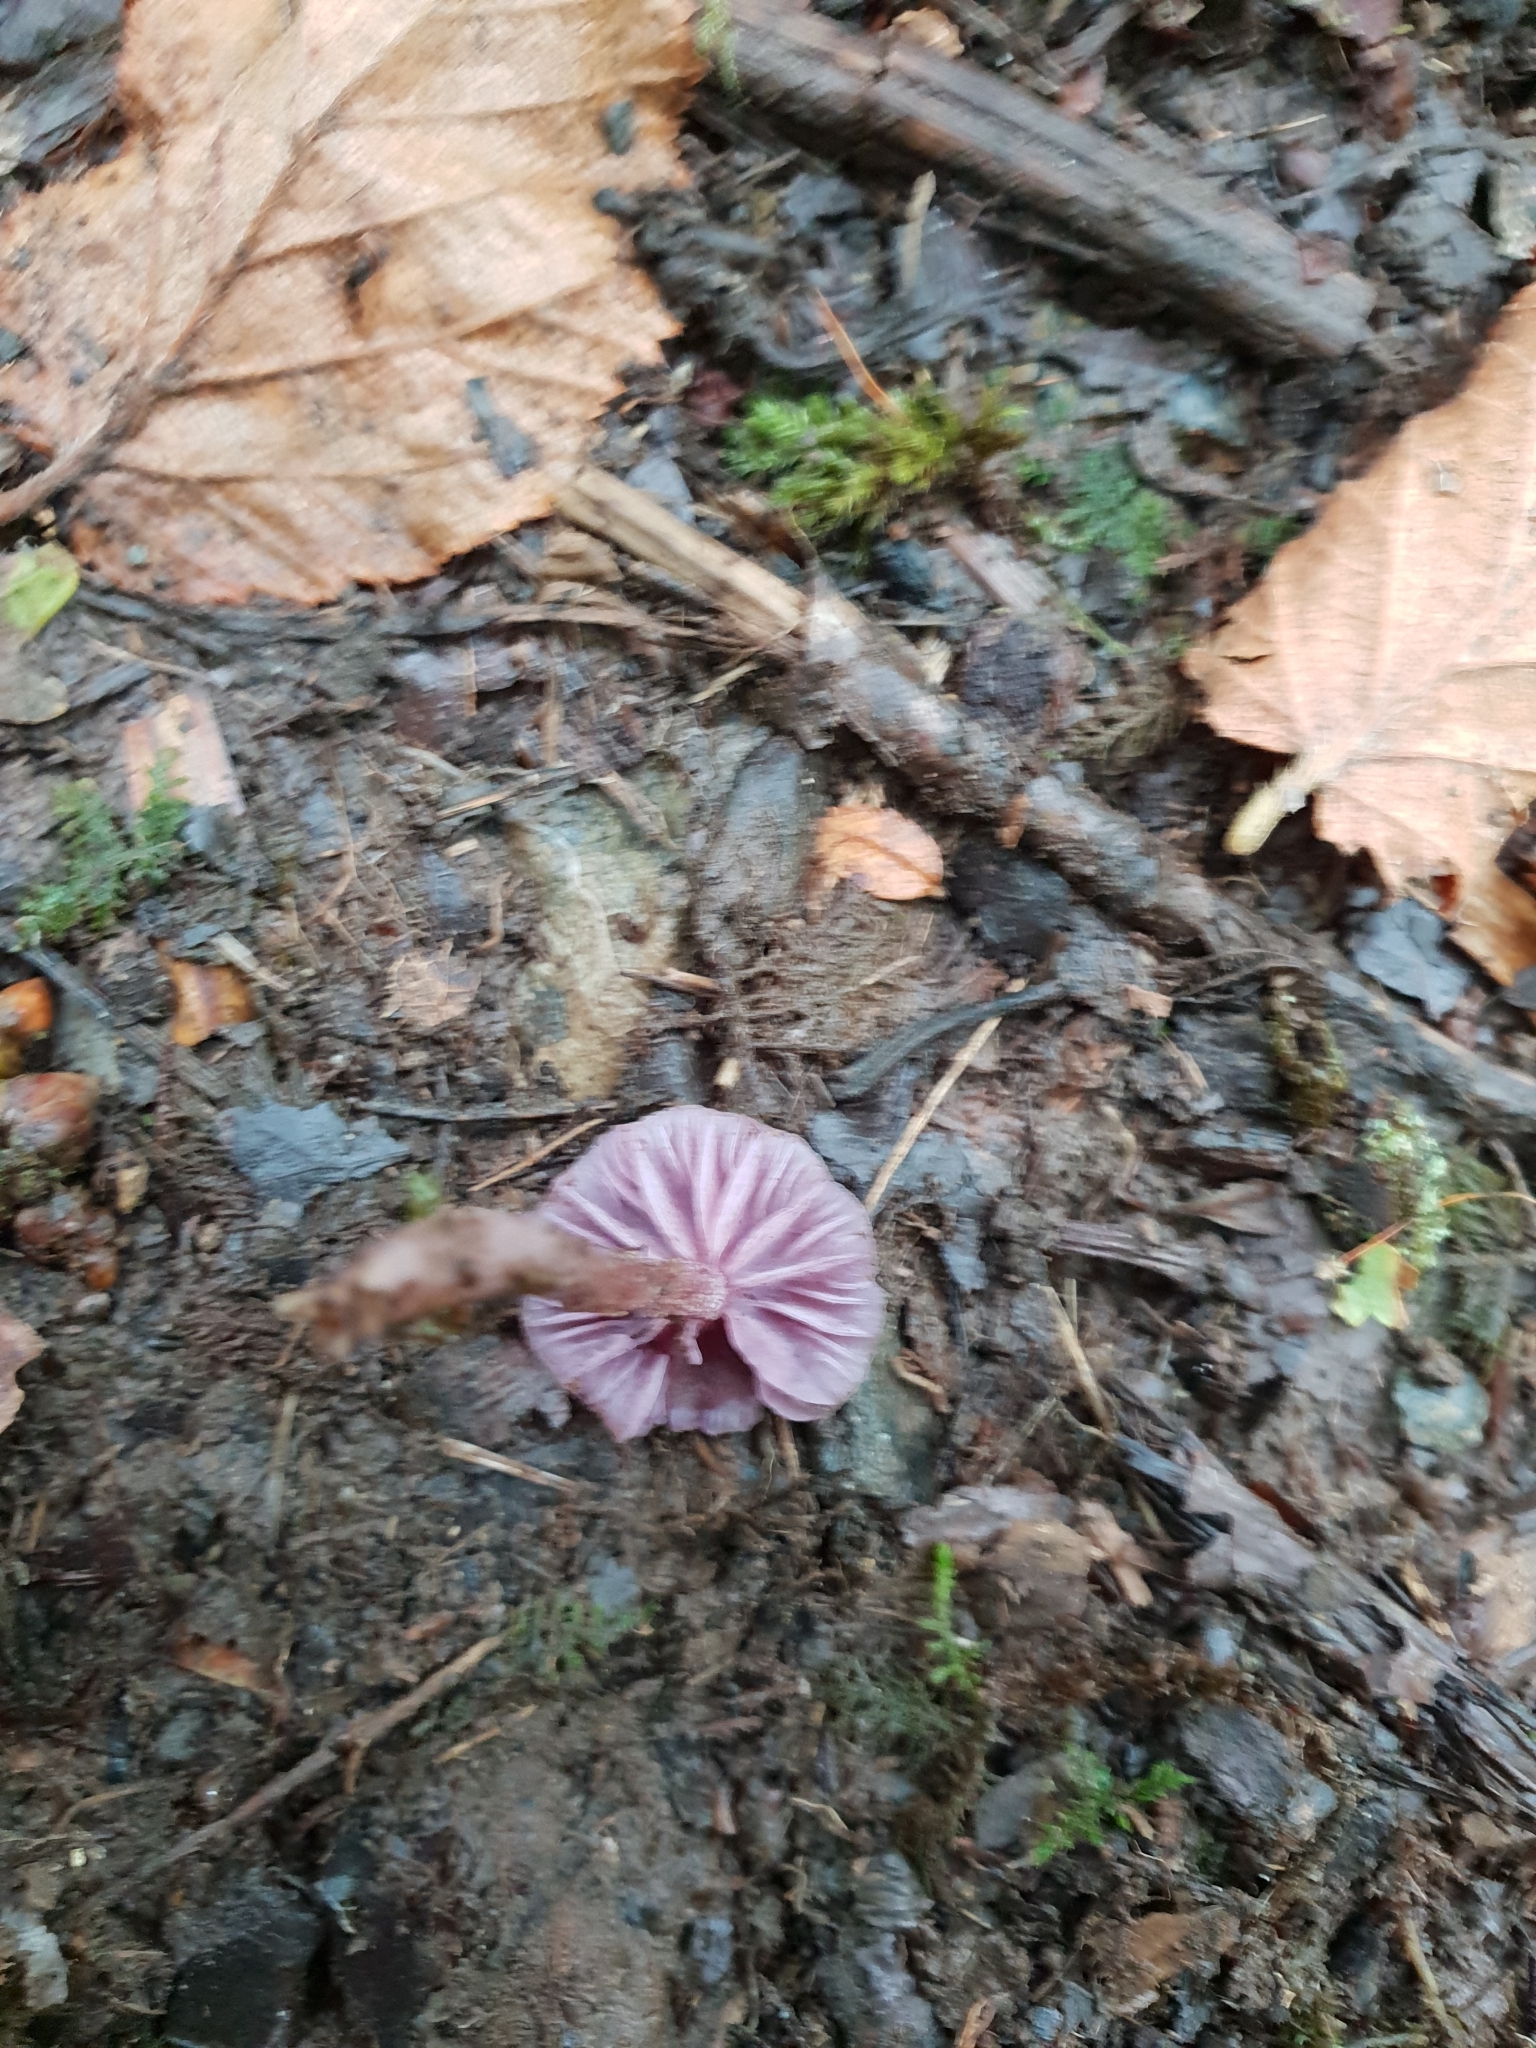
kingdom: Fungi
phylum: Basidiomycota
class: Agaricomycetes
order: Agaricales
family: Hydnangiaceae
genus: Laccaria
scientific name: Laccaria amethystina
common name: Amethyst deceiver
